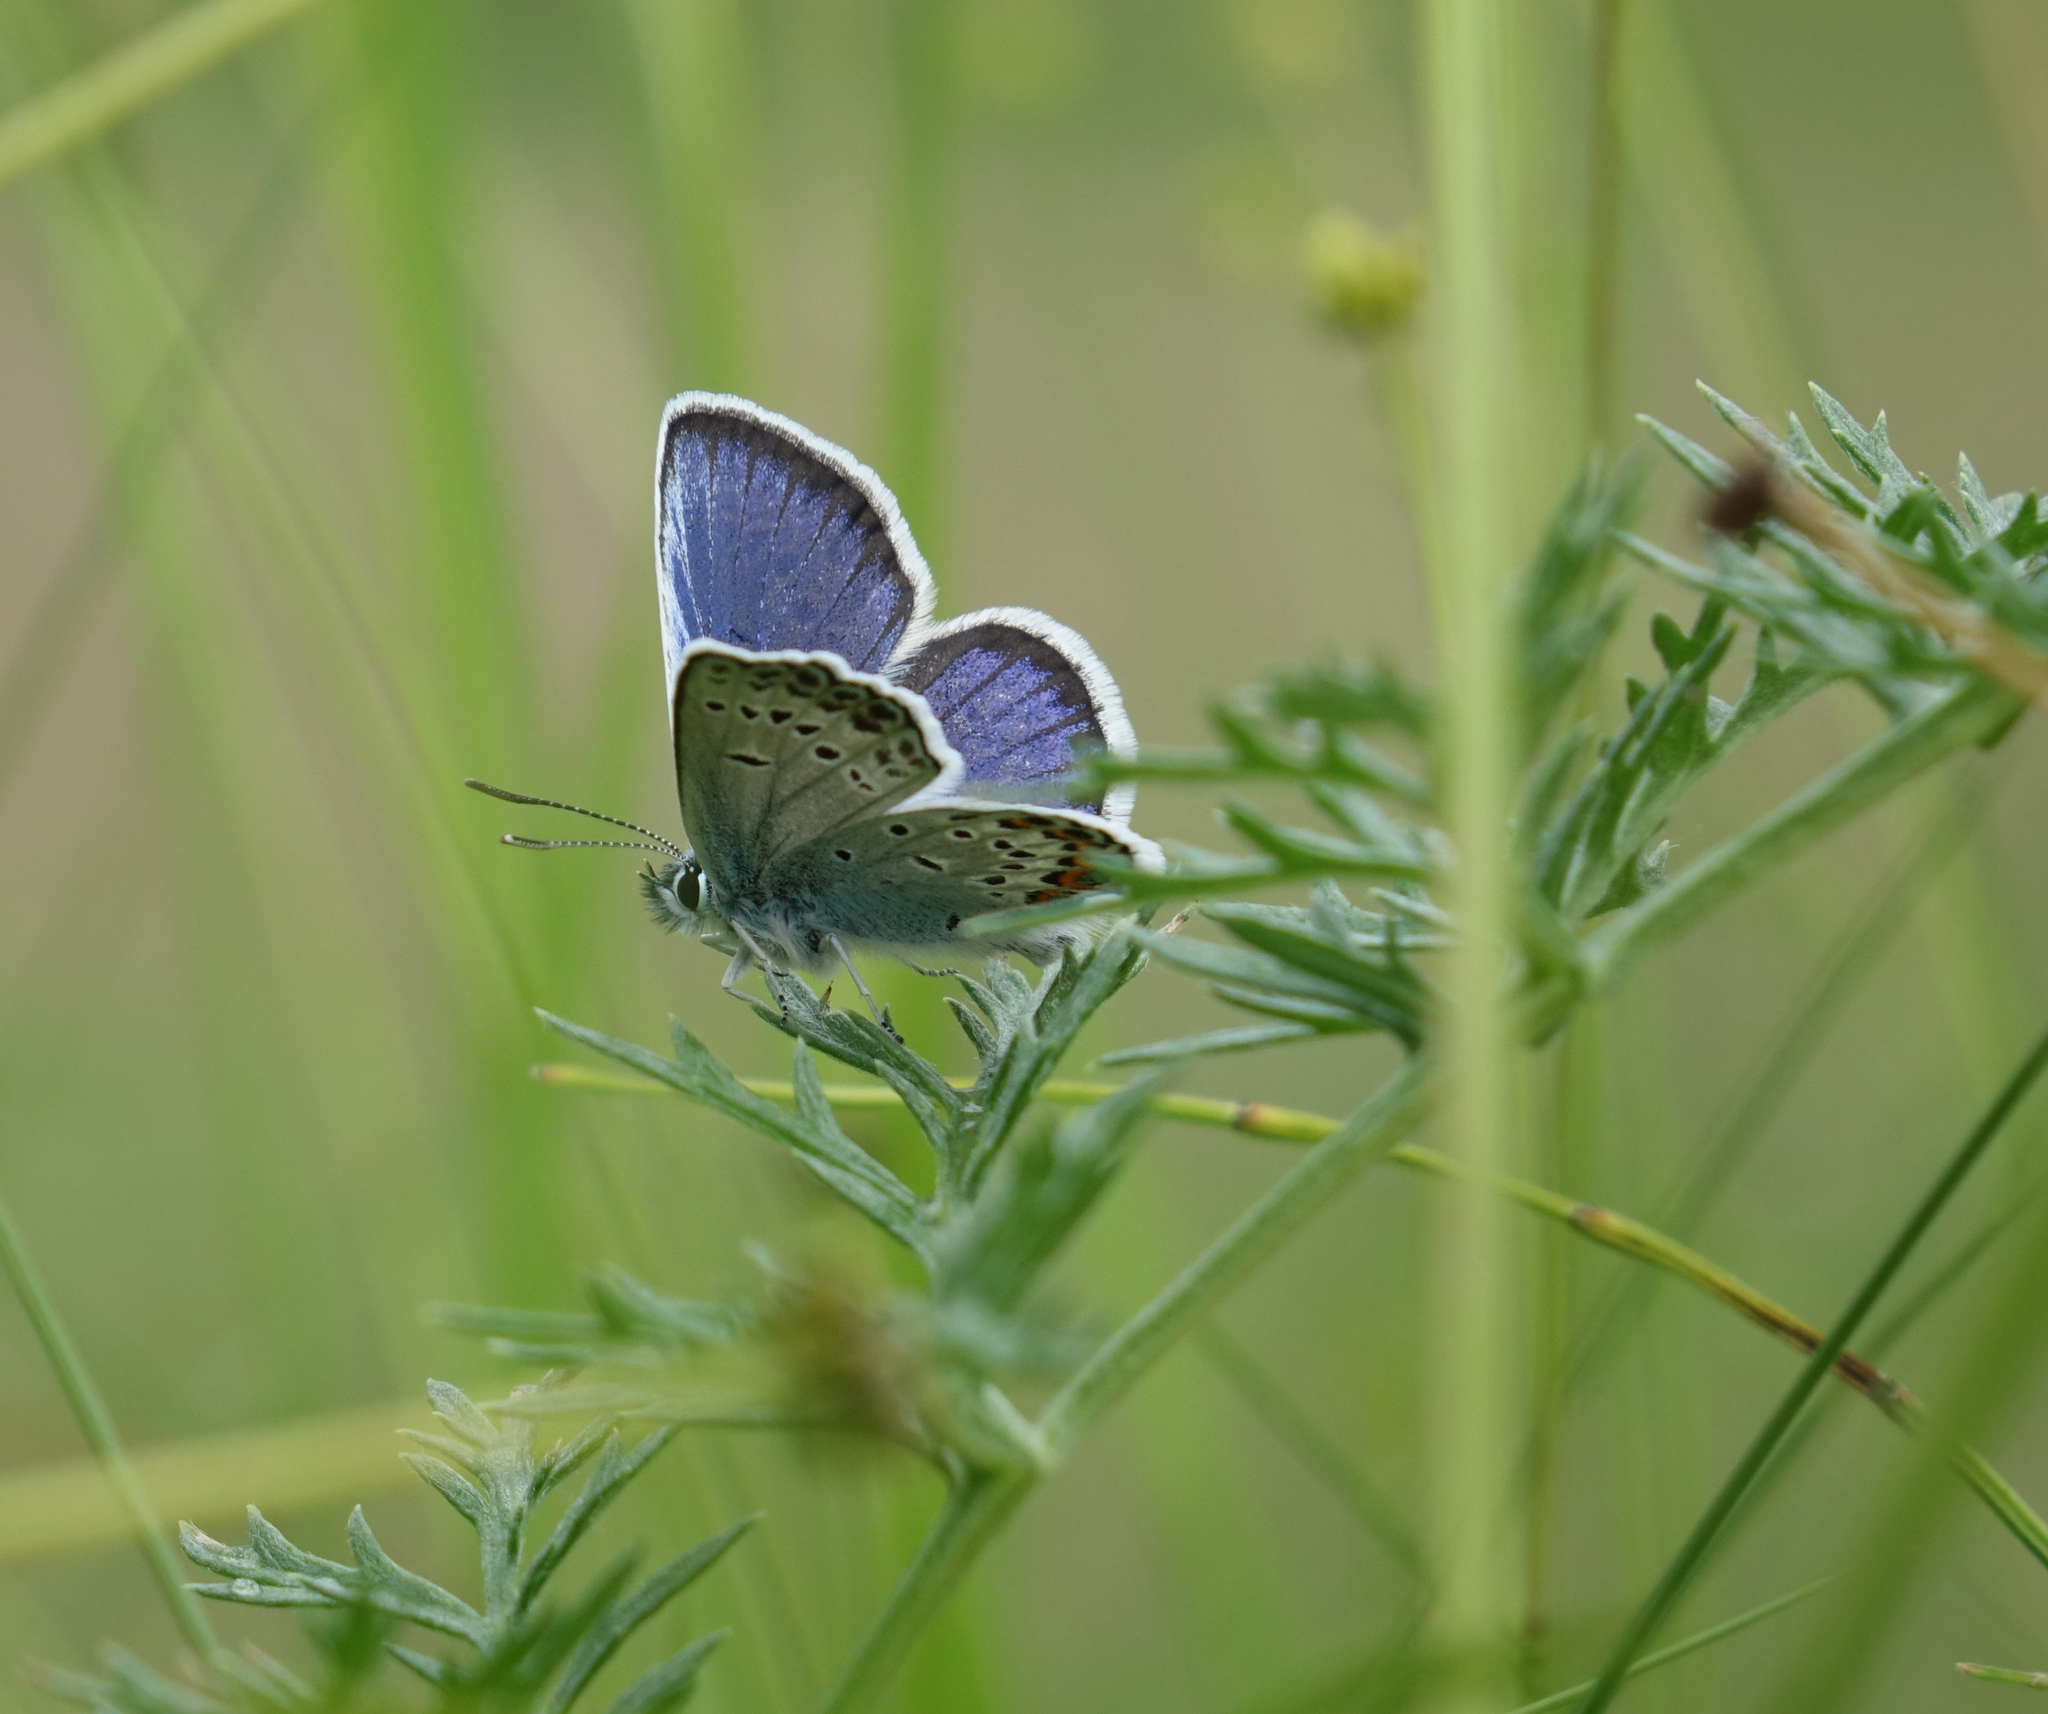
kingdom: Animalia
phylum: Arthropoda
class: Insecta
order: Lepidoptera
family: Lycaenidae
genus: Plebejus
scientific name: Plebejus argus
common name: Silver-studded blue
